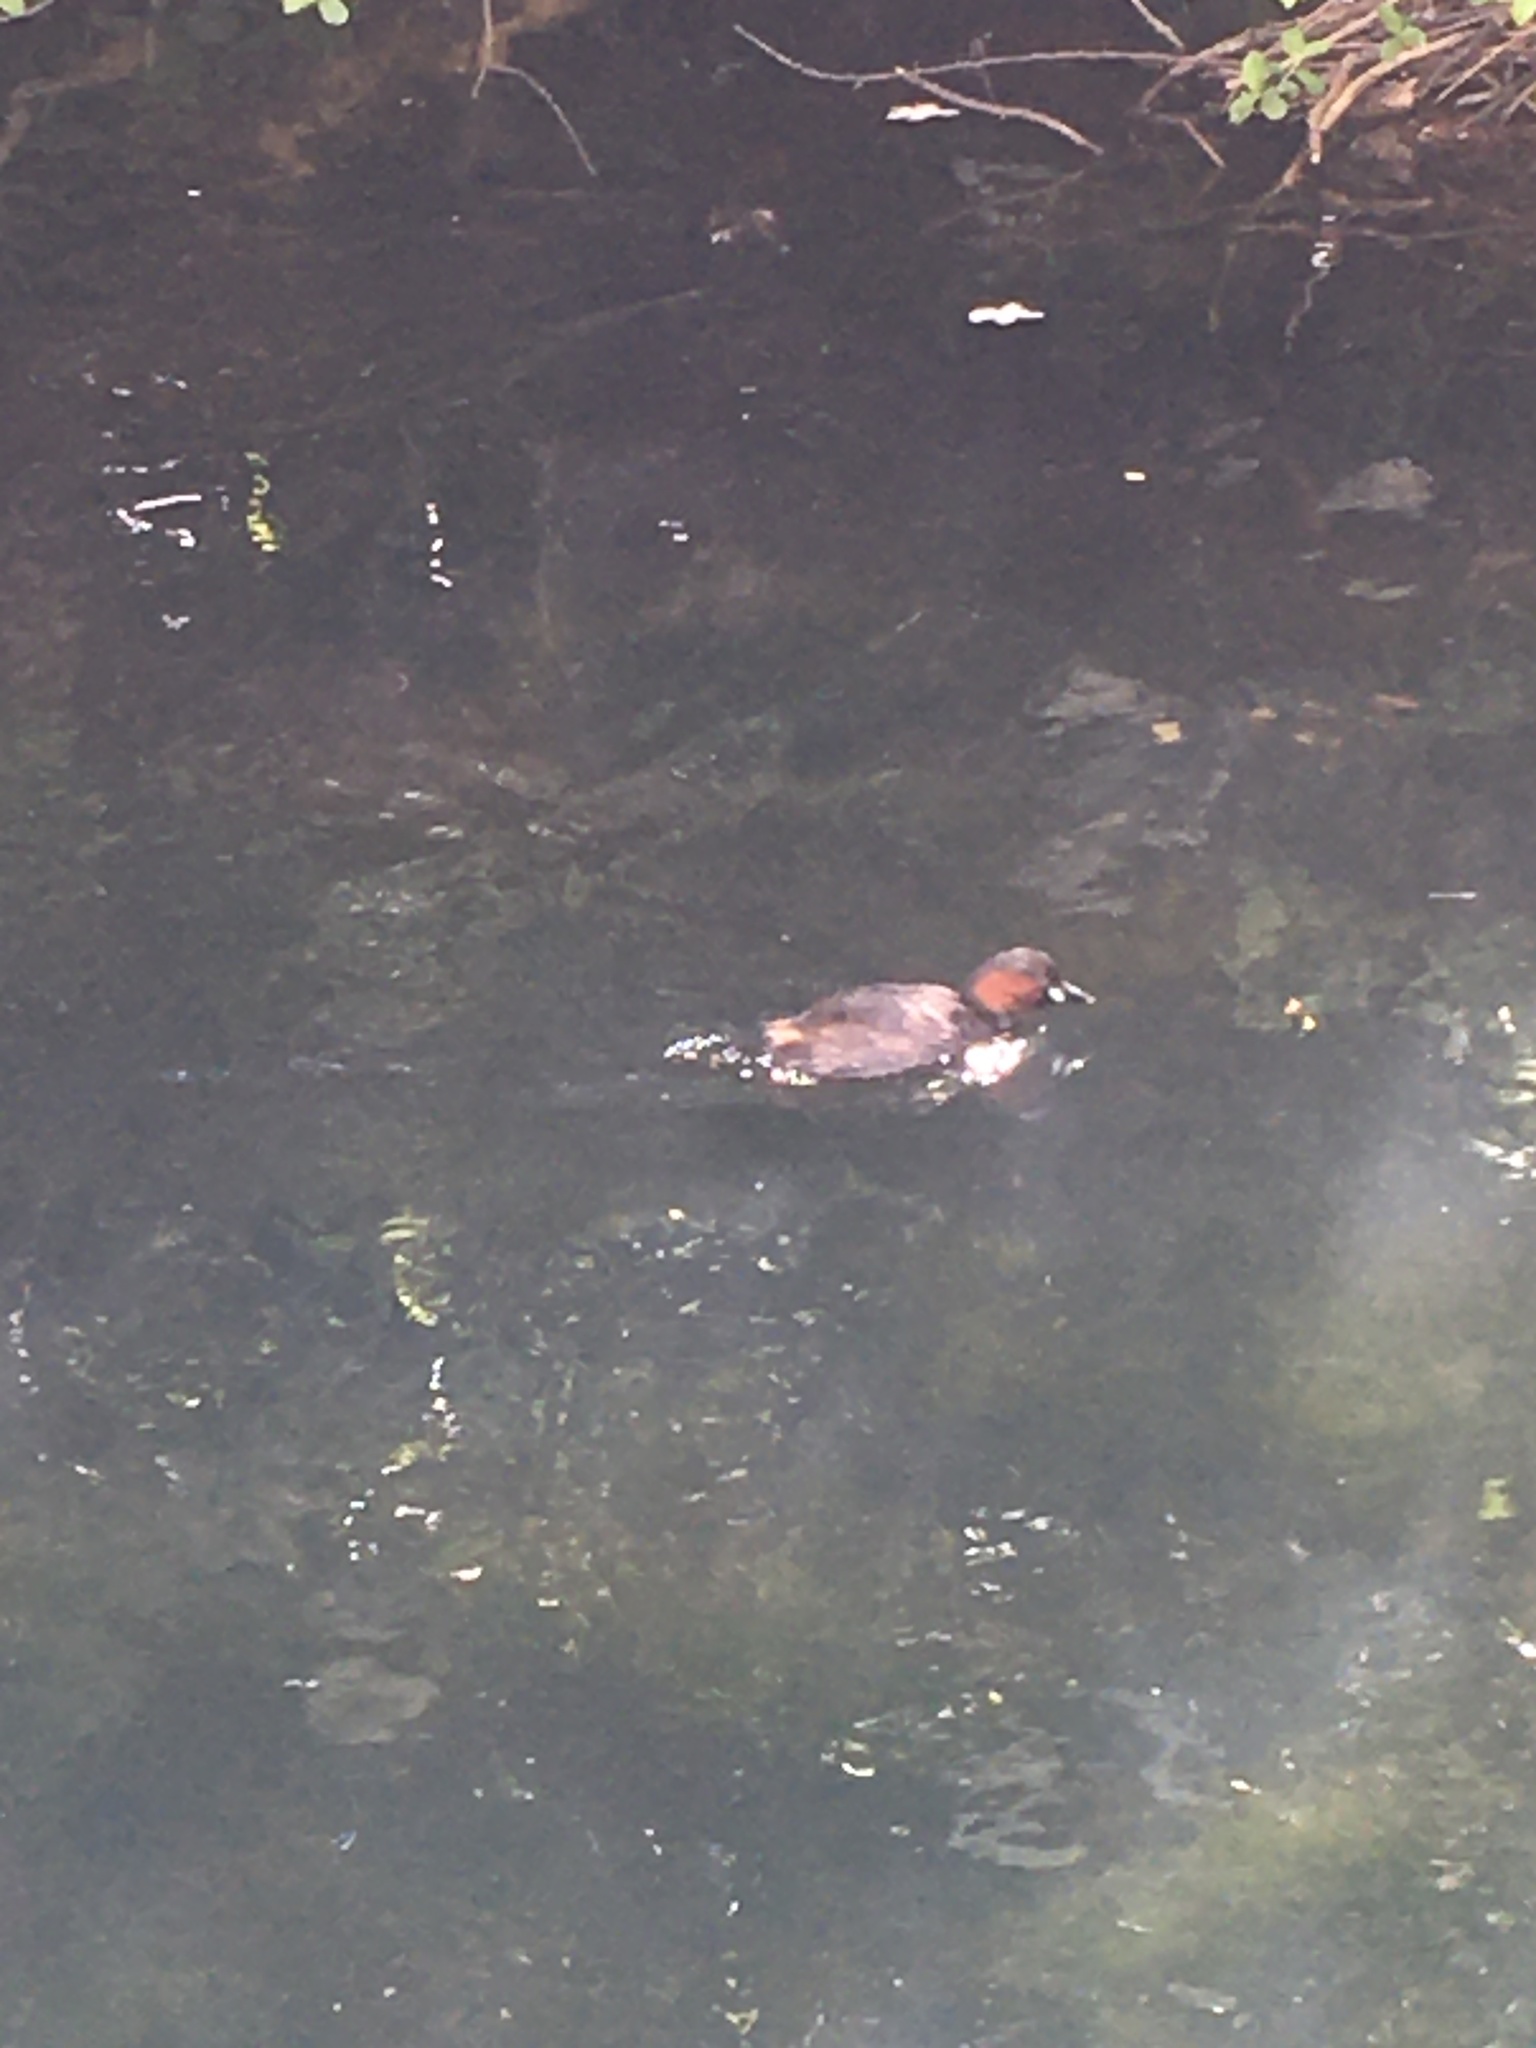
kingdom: Animalia
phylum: Chordata
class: Aves
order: Podicipediformes
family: Podicipedidae
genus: Tachybaptus
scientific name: Tachybaptus ruficollis
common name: Little grebe
